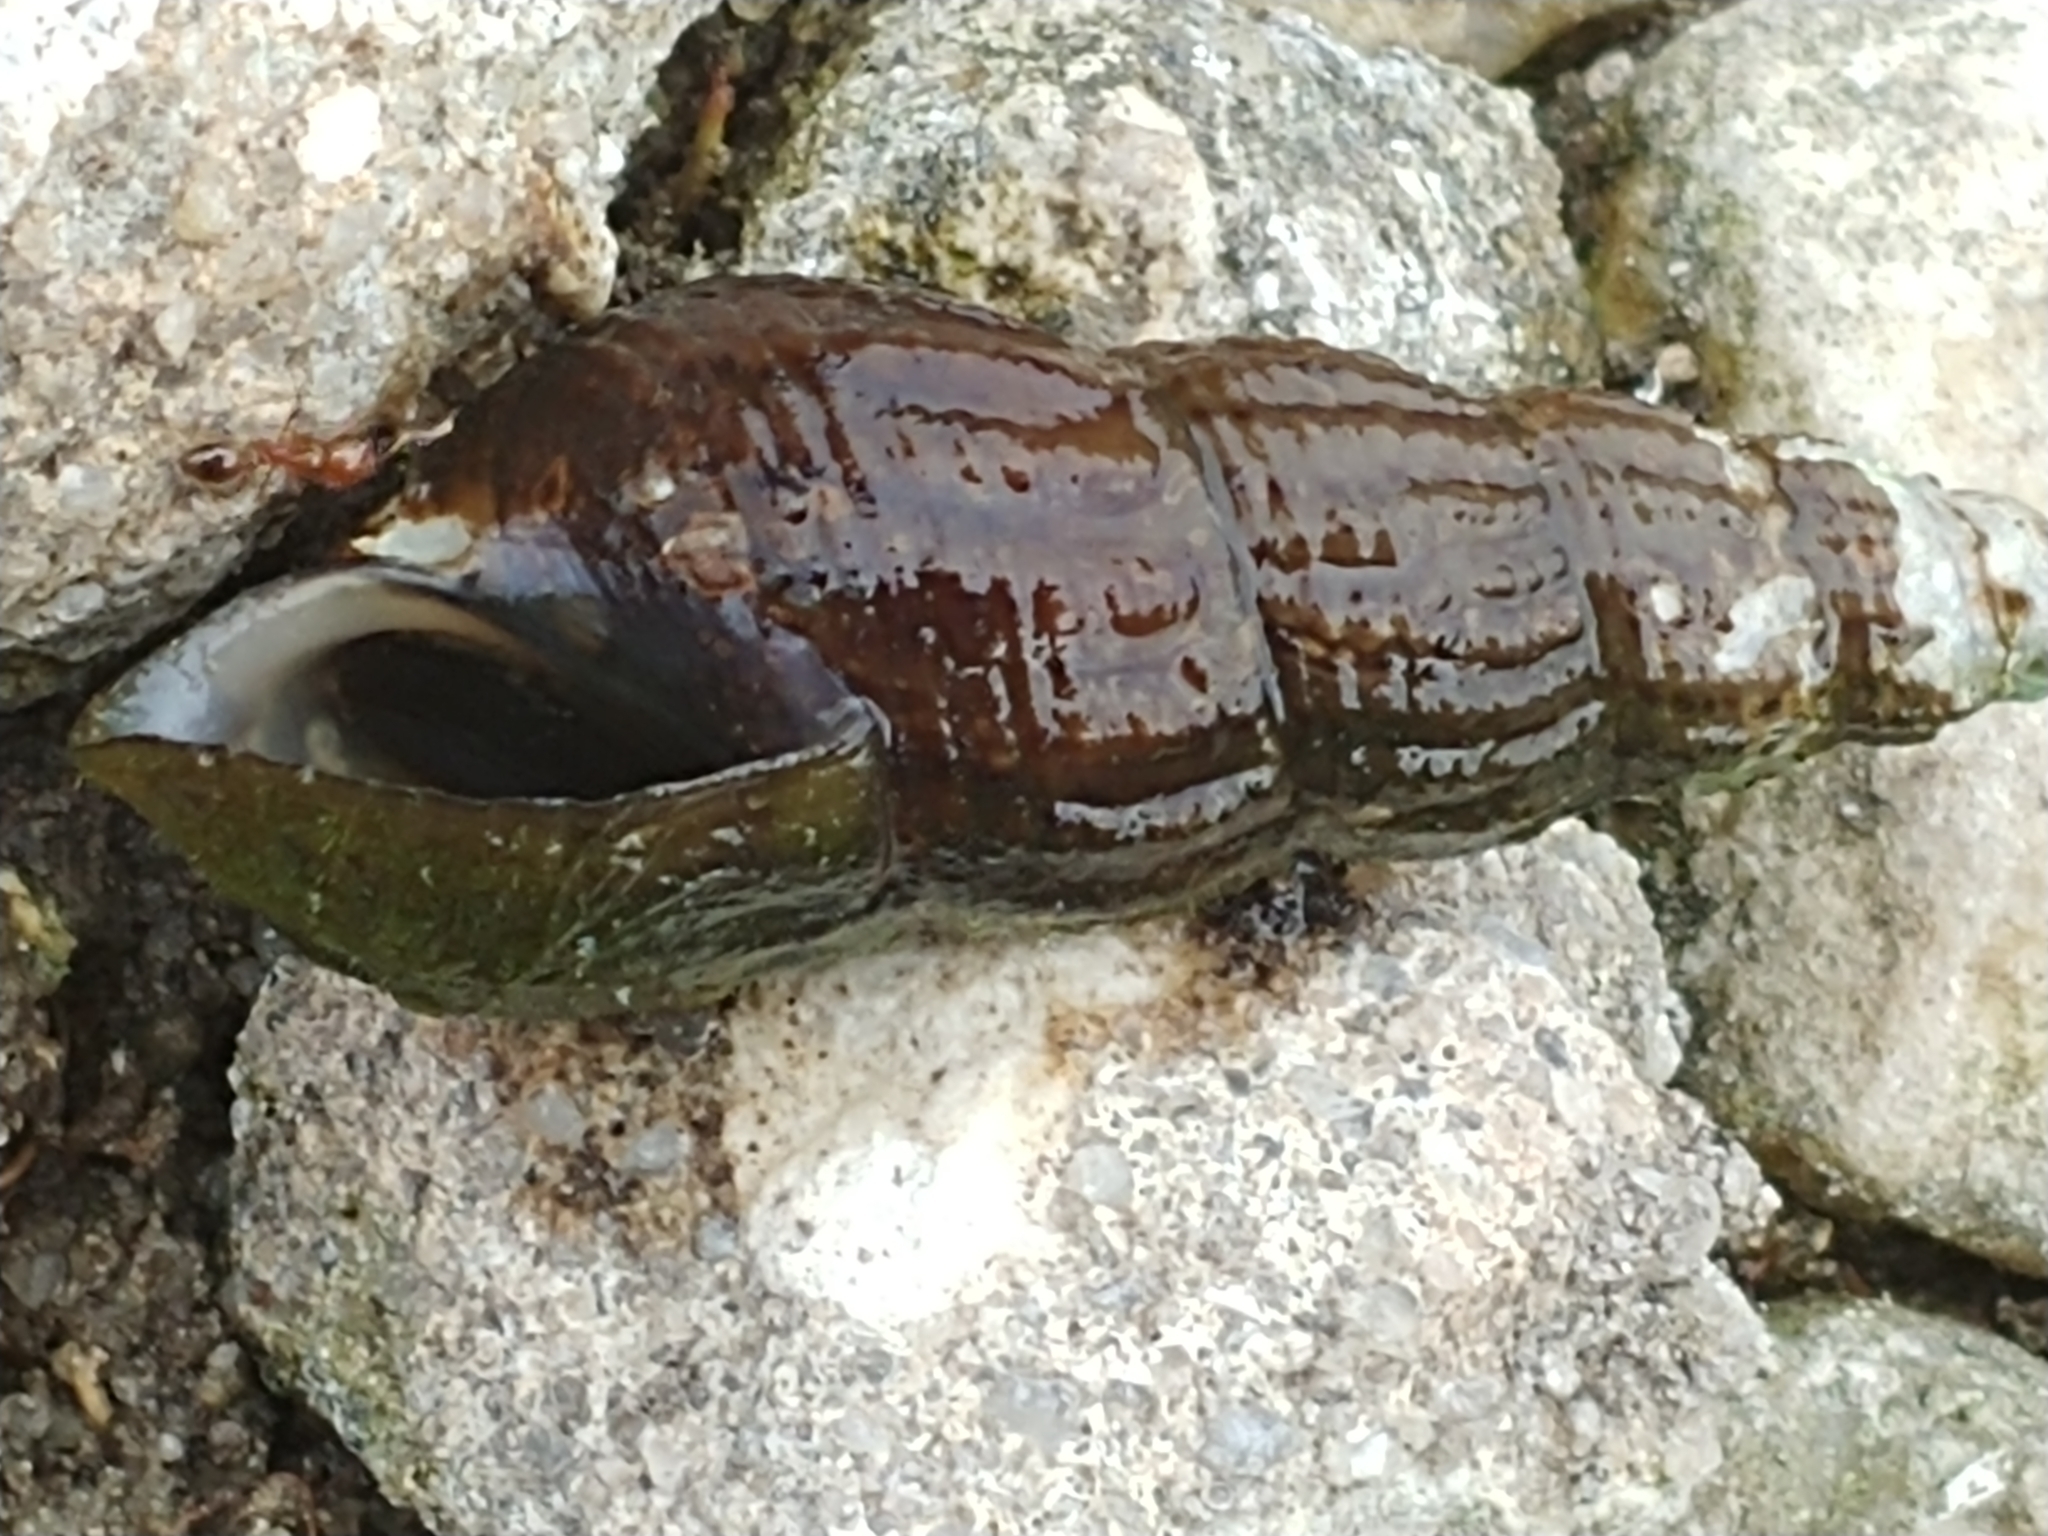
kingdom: Animalia
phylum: Mollusca
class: Gastropoda
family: Thiaridae
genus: Tarebia
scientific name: Tarebia granifera
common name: Quilted melania
